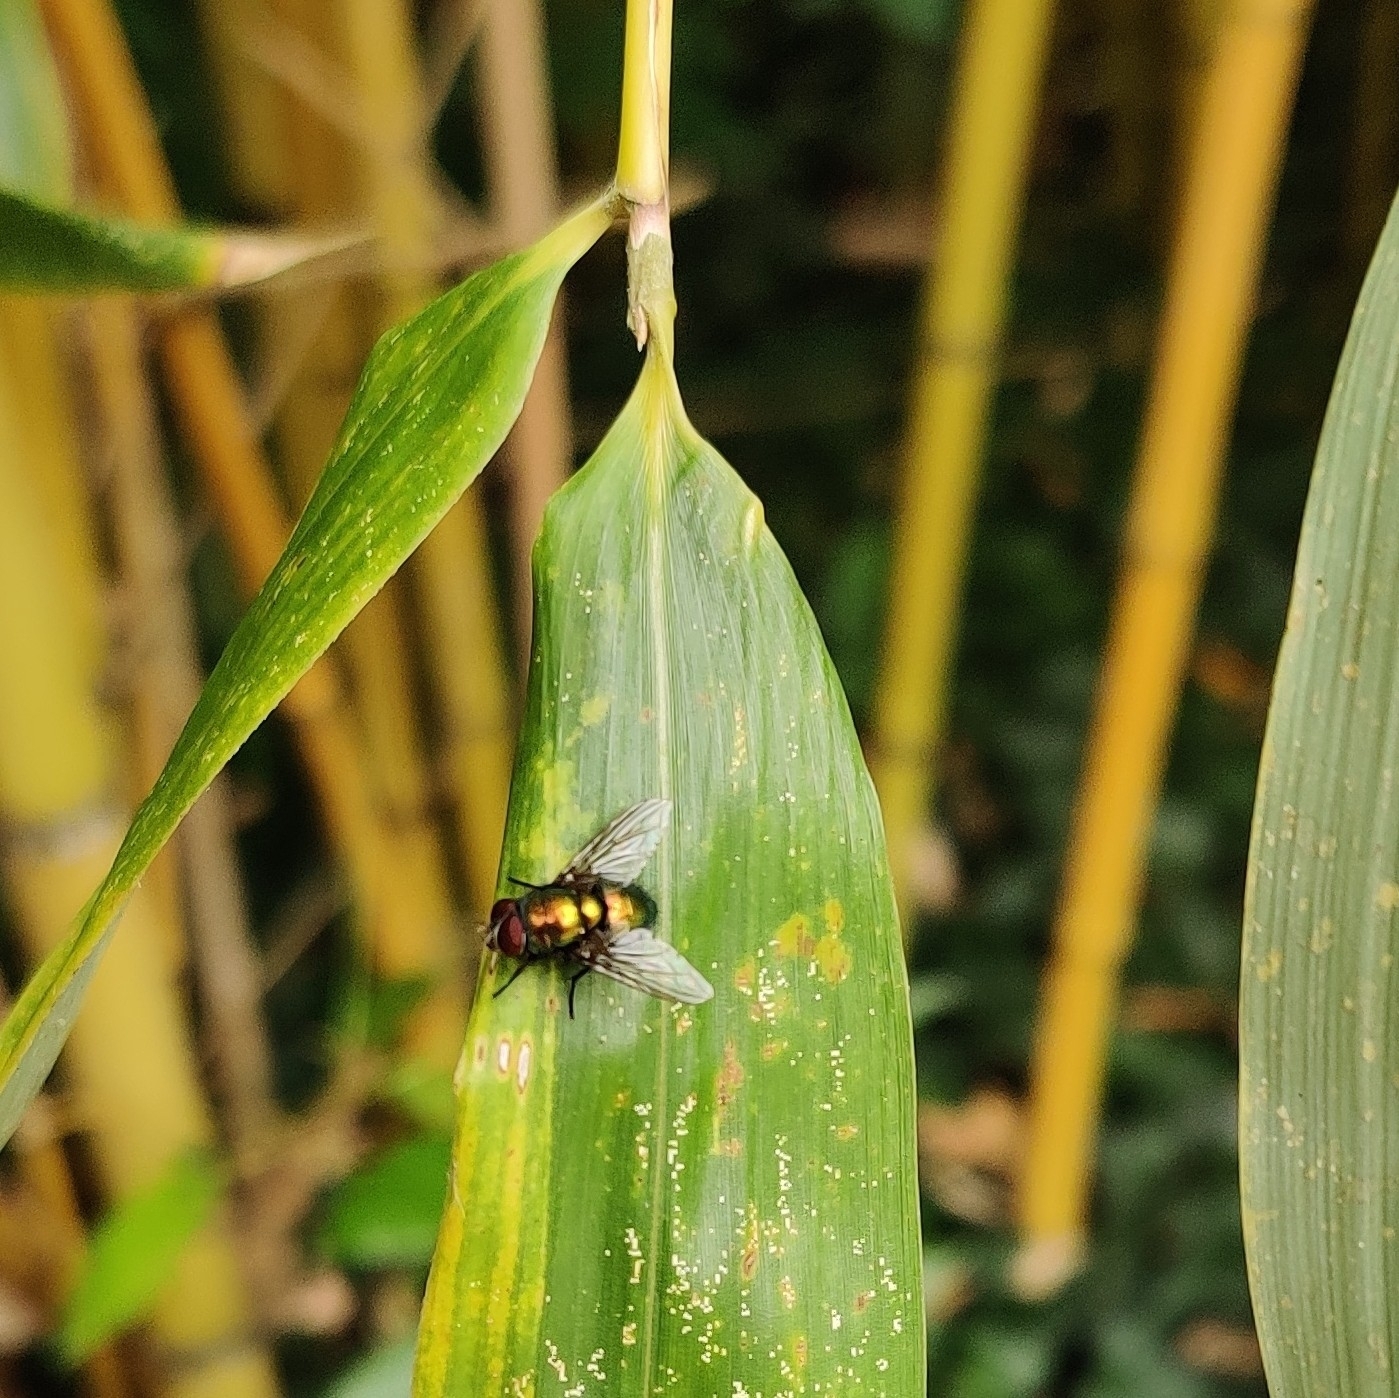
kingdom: Animalia
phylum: Arthropoda
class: Insecta
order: Diptera
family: Calliphoridae
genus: Lucilia
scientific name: Lucilia
